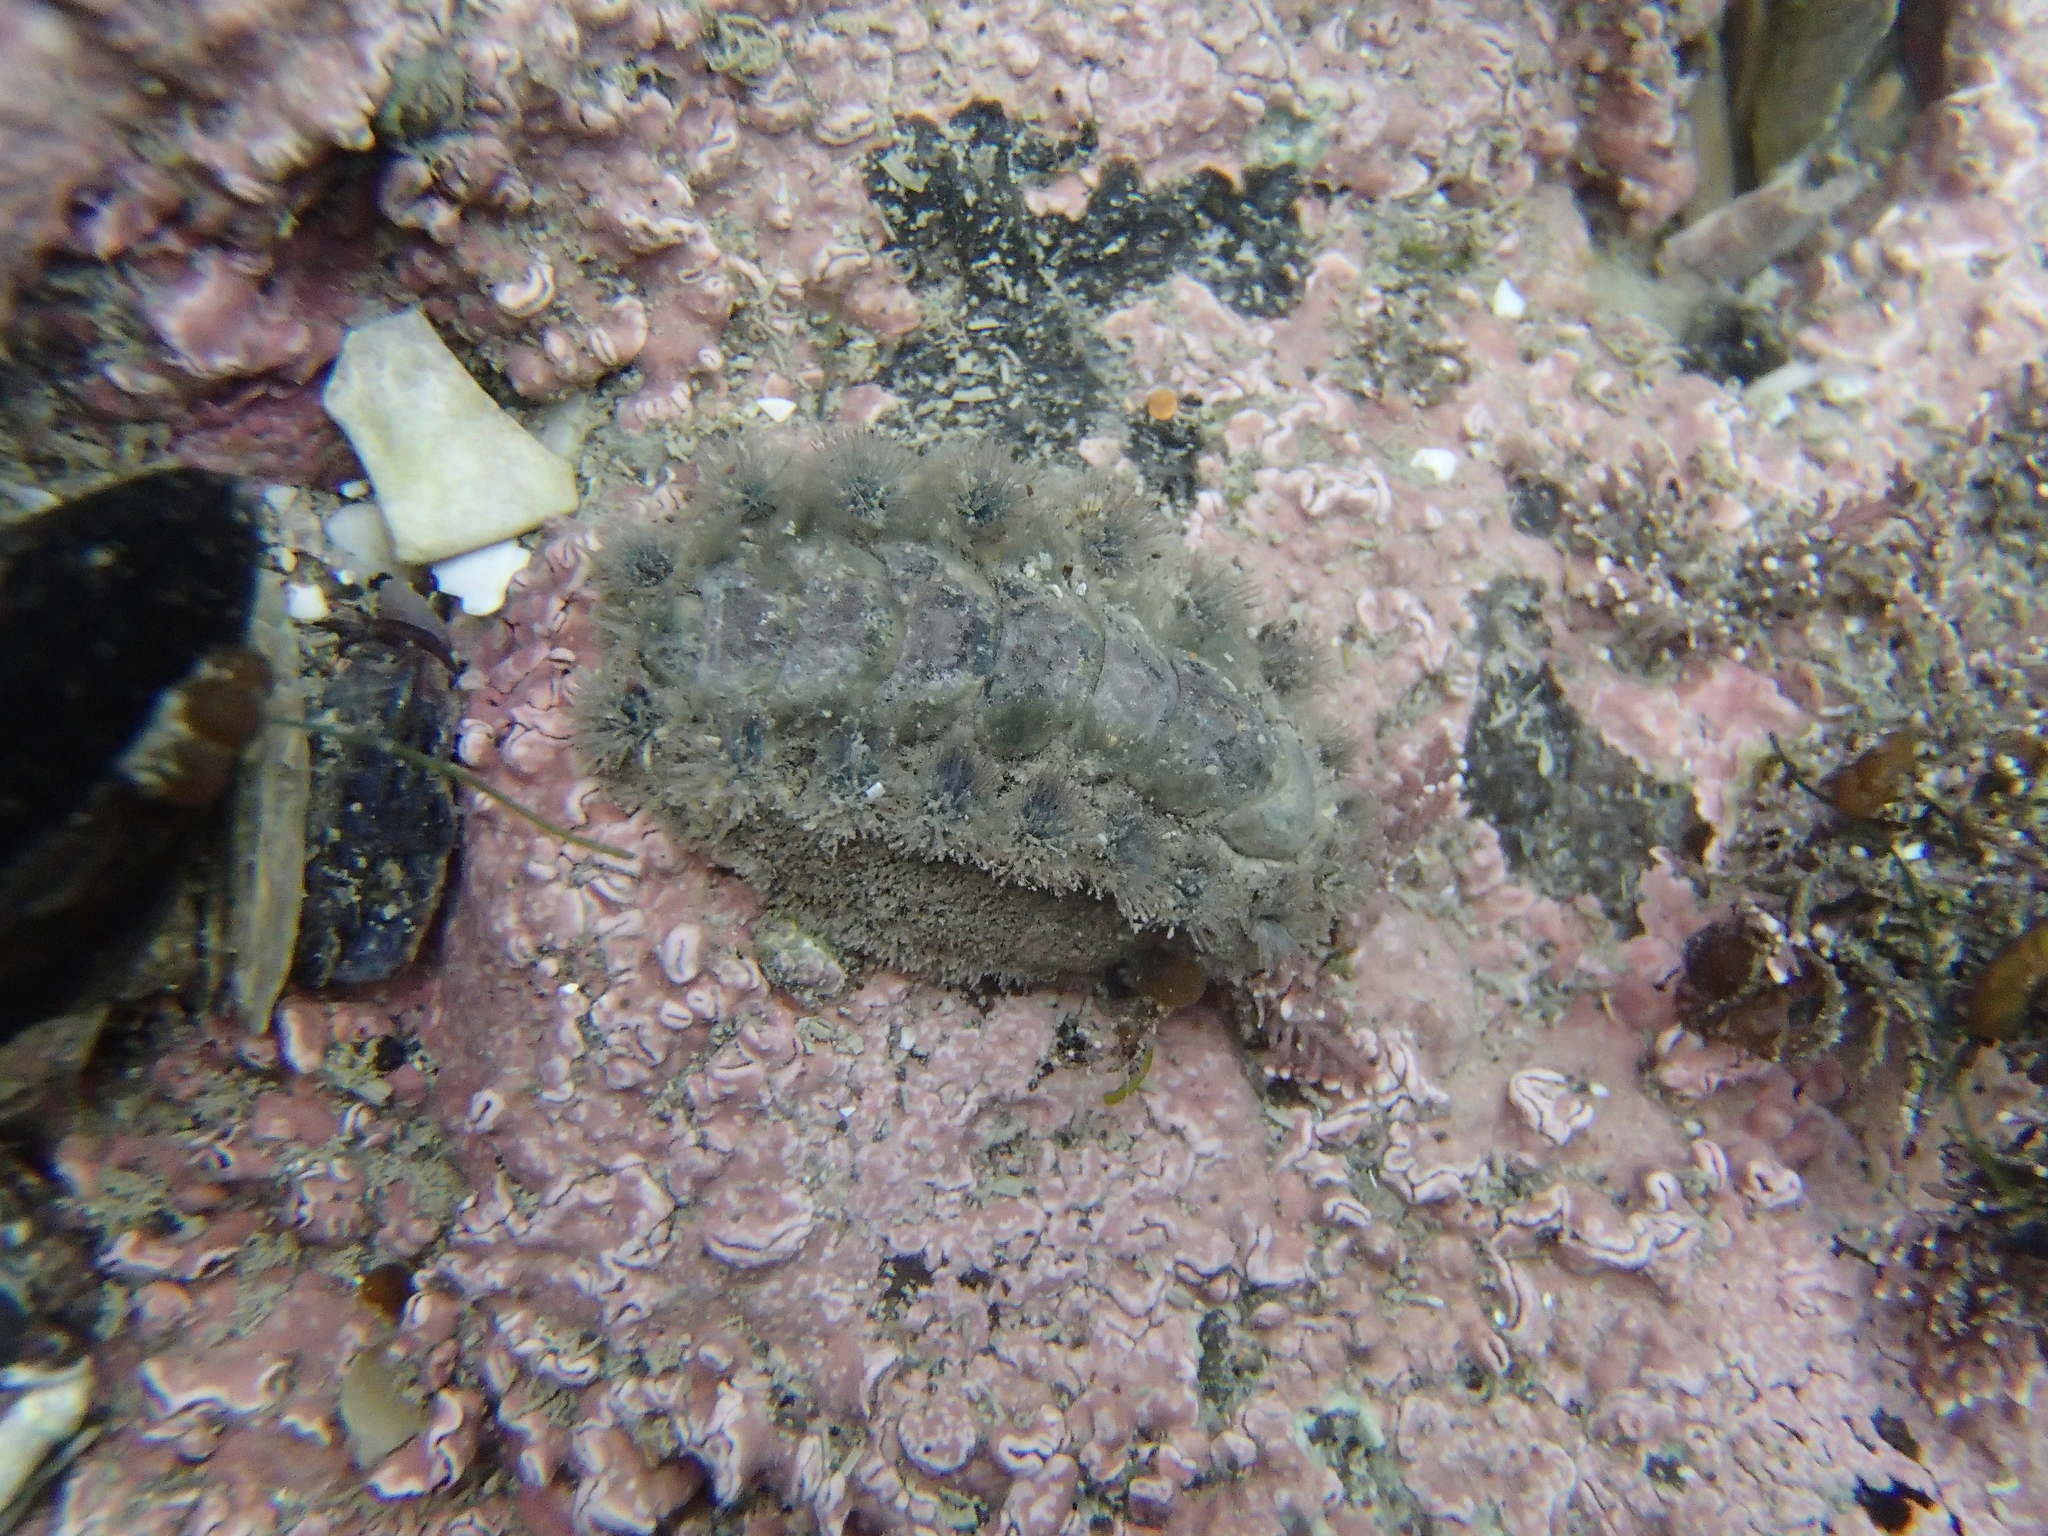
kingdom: Animalia
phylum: Mollusca
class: Polyplacophora
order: Chitonida
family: Acanthochitonidae
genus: Acanthochitona
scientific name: Acanthochitona zelandica
